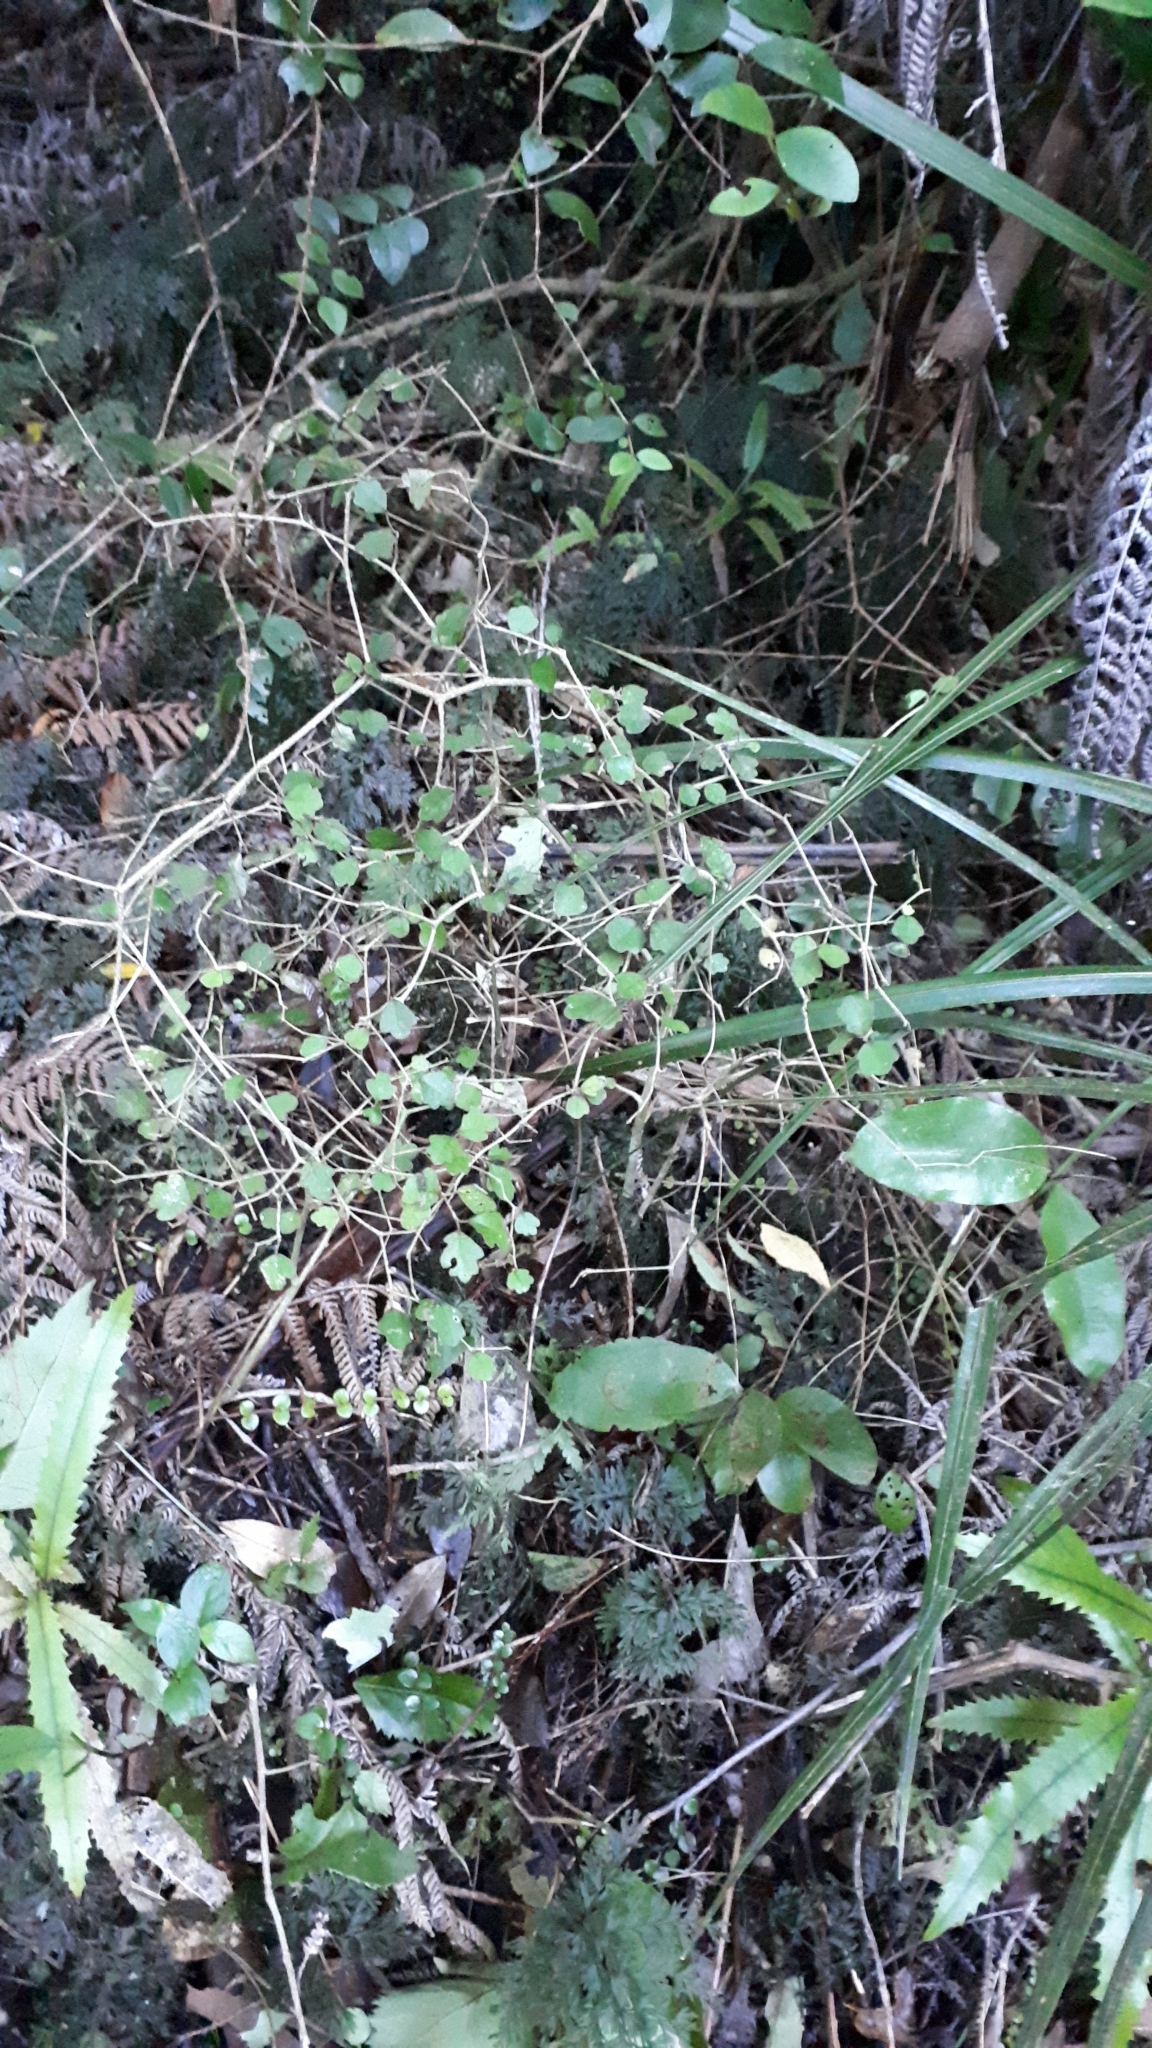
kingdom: Plantae
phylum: Tracheophyta
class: Magnoliopsida
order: Apiales
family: Pennantiaceae
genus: Pennantia
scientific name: Pennantia corymbosa
